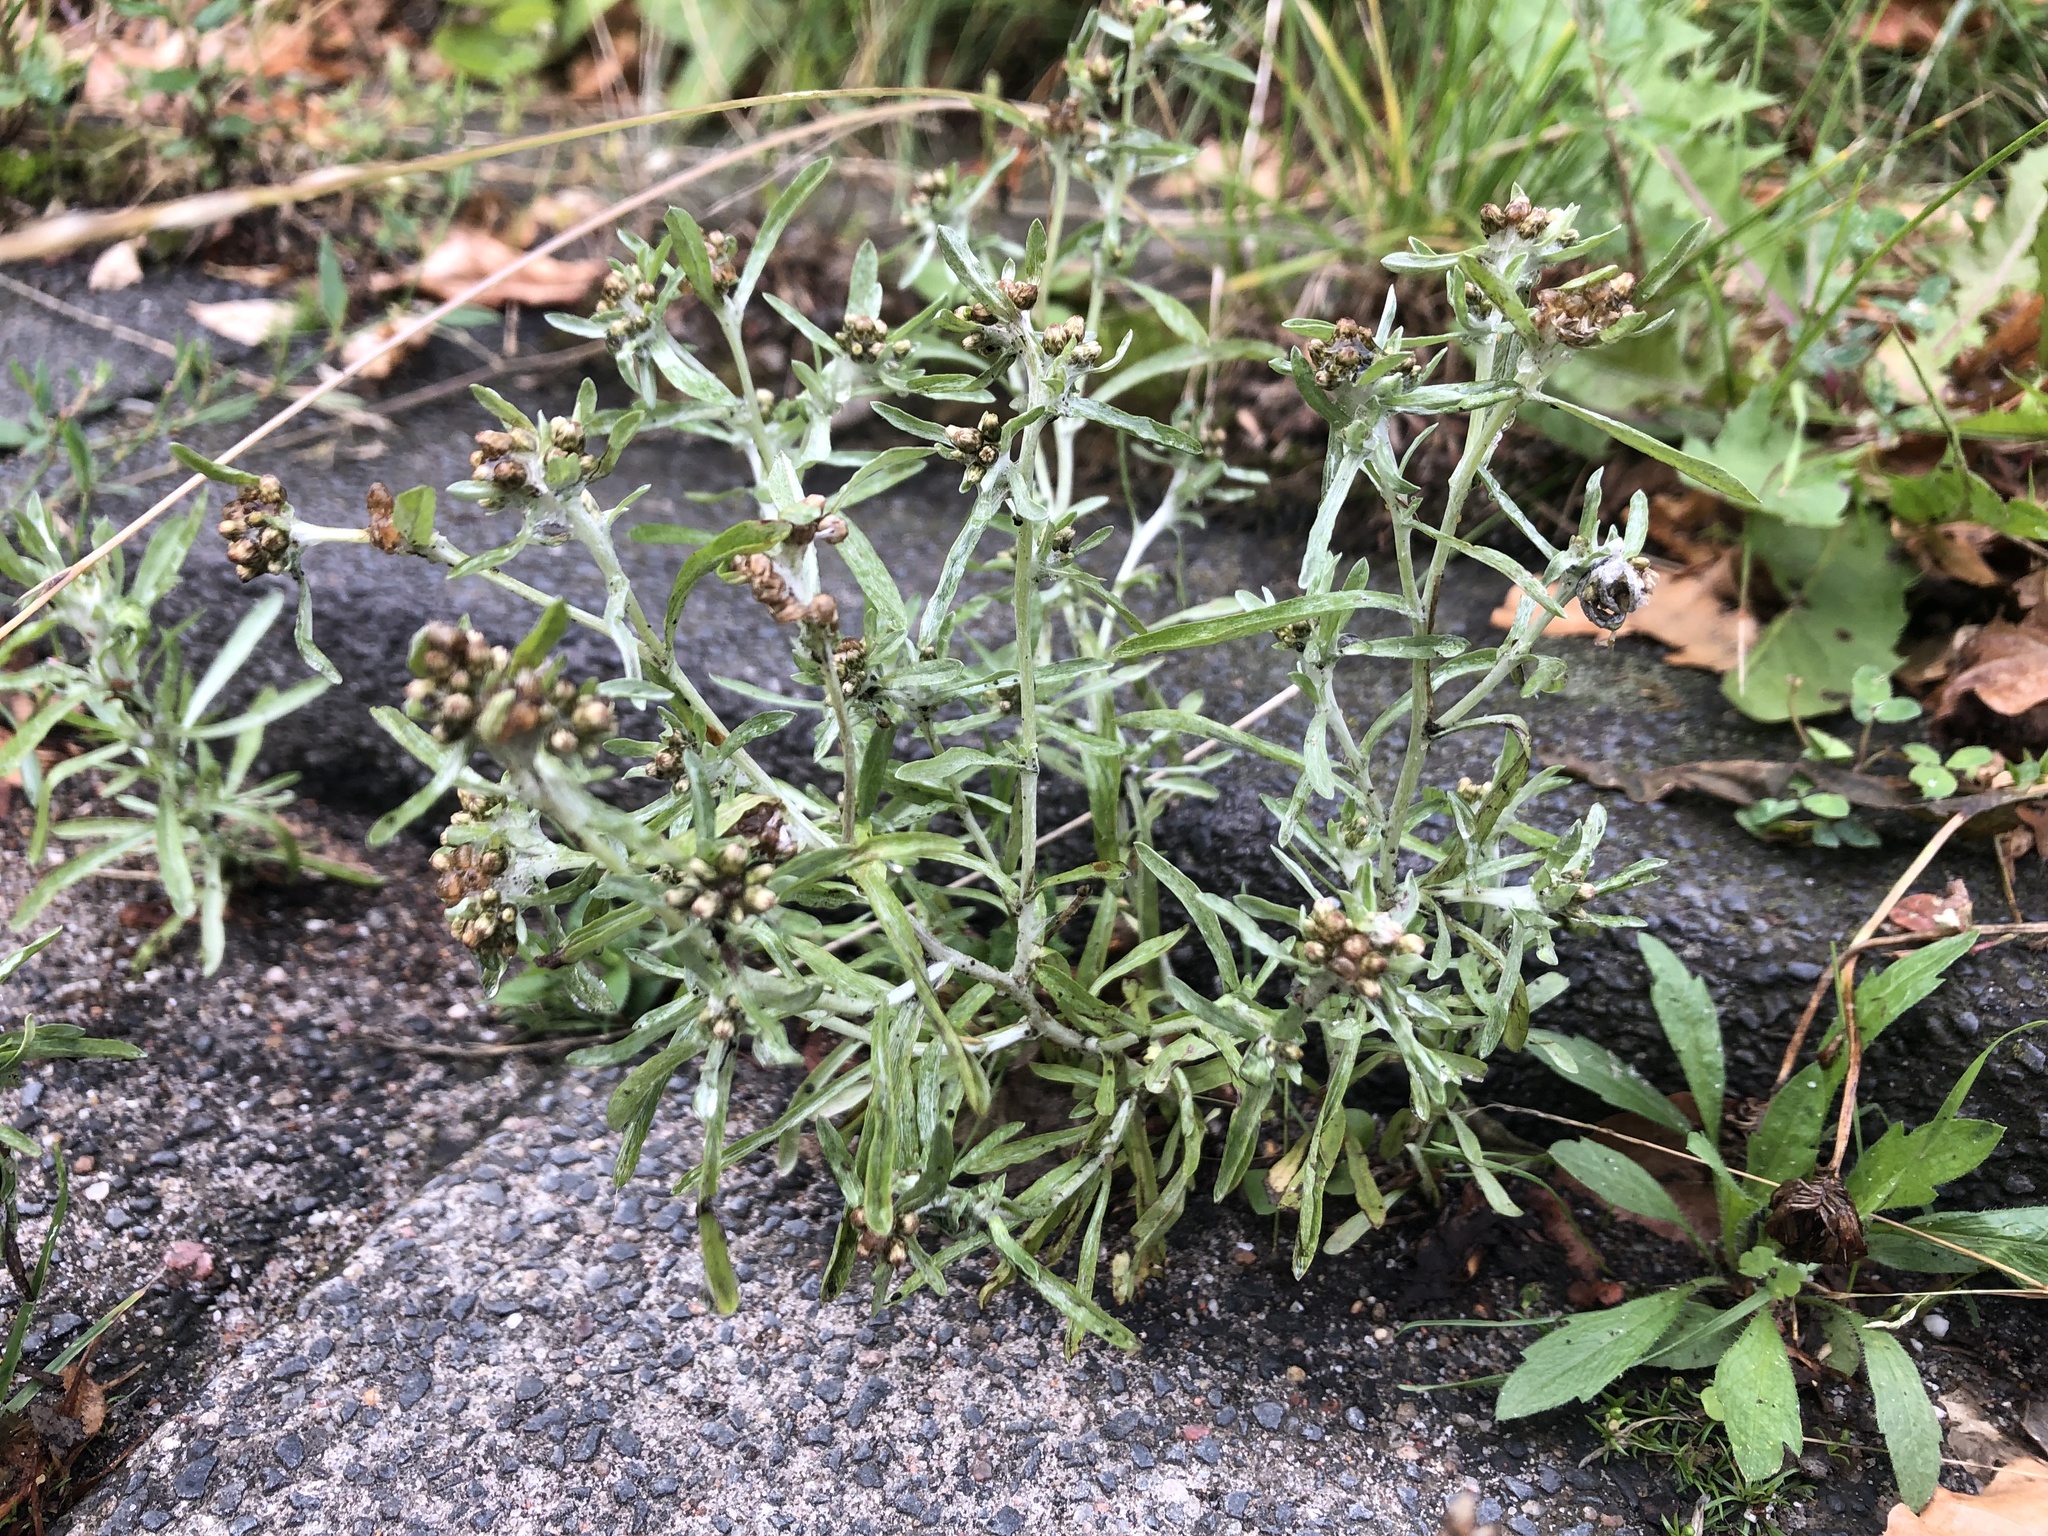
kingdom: Plantae
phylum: Tracheophyta
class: Magnoliopsida
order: Asterales
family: Asteraceae
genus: Gnaphalium
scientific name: Gnaphalium uliginosum
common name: Marsh cudweed
